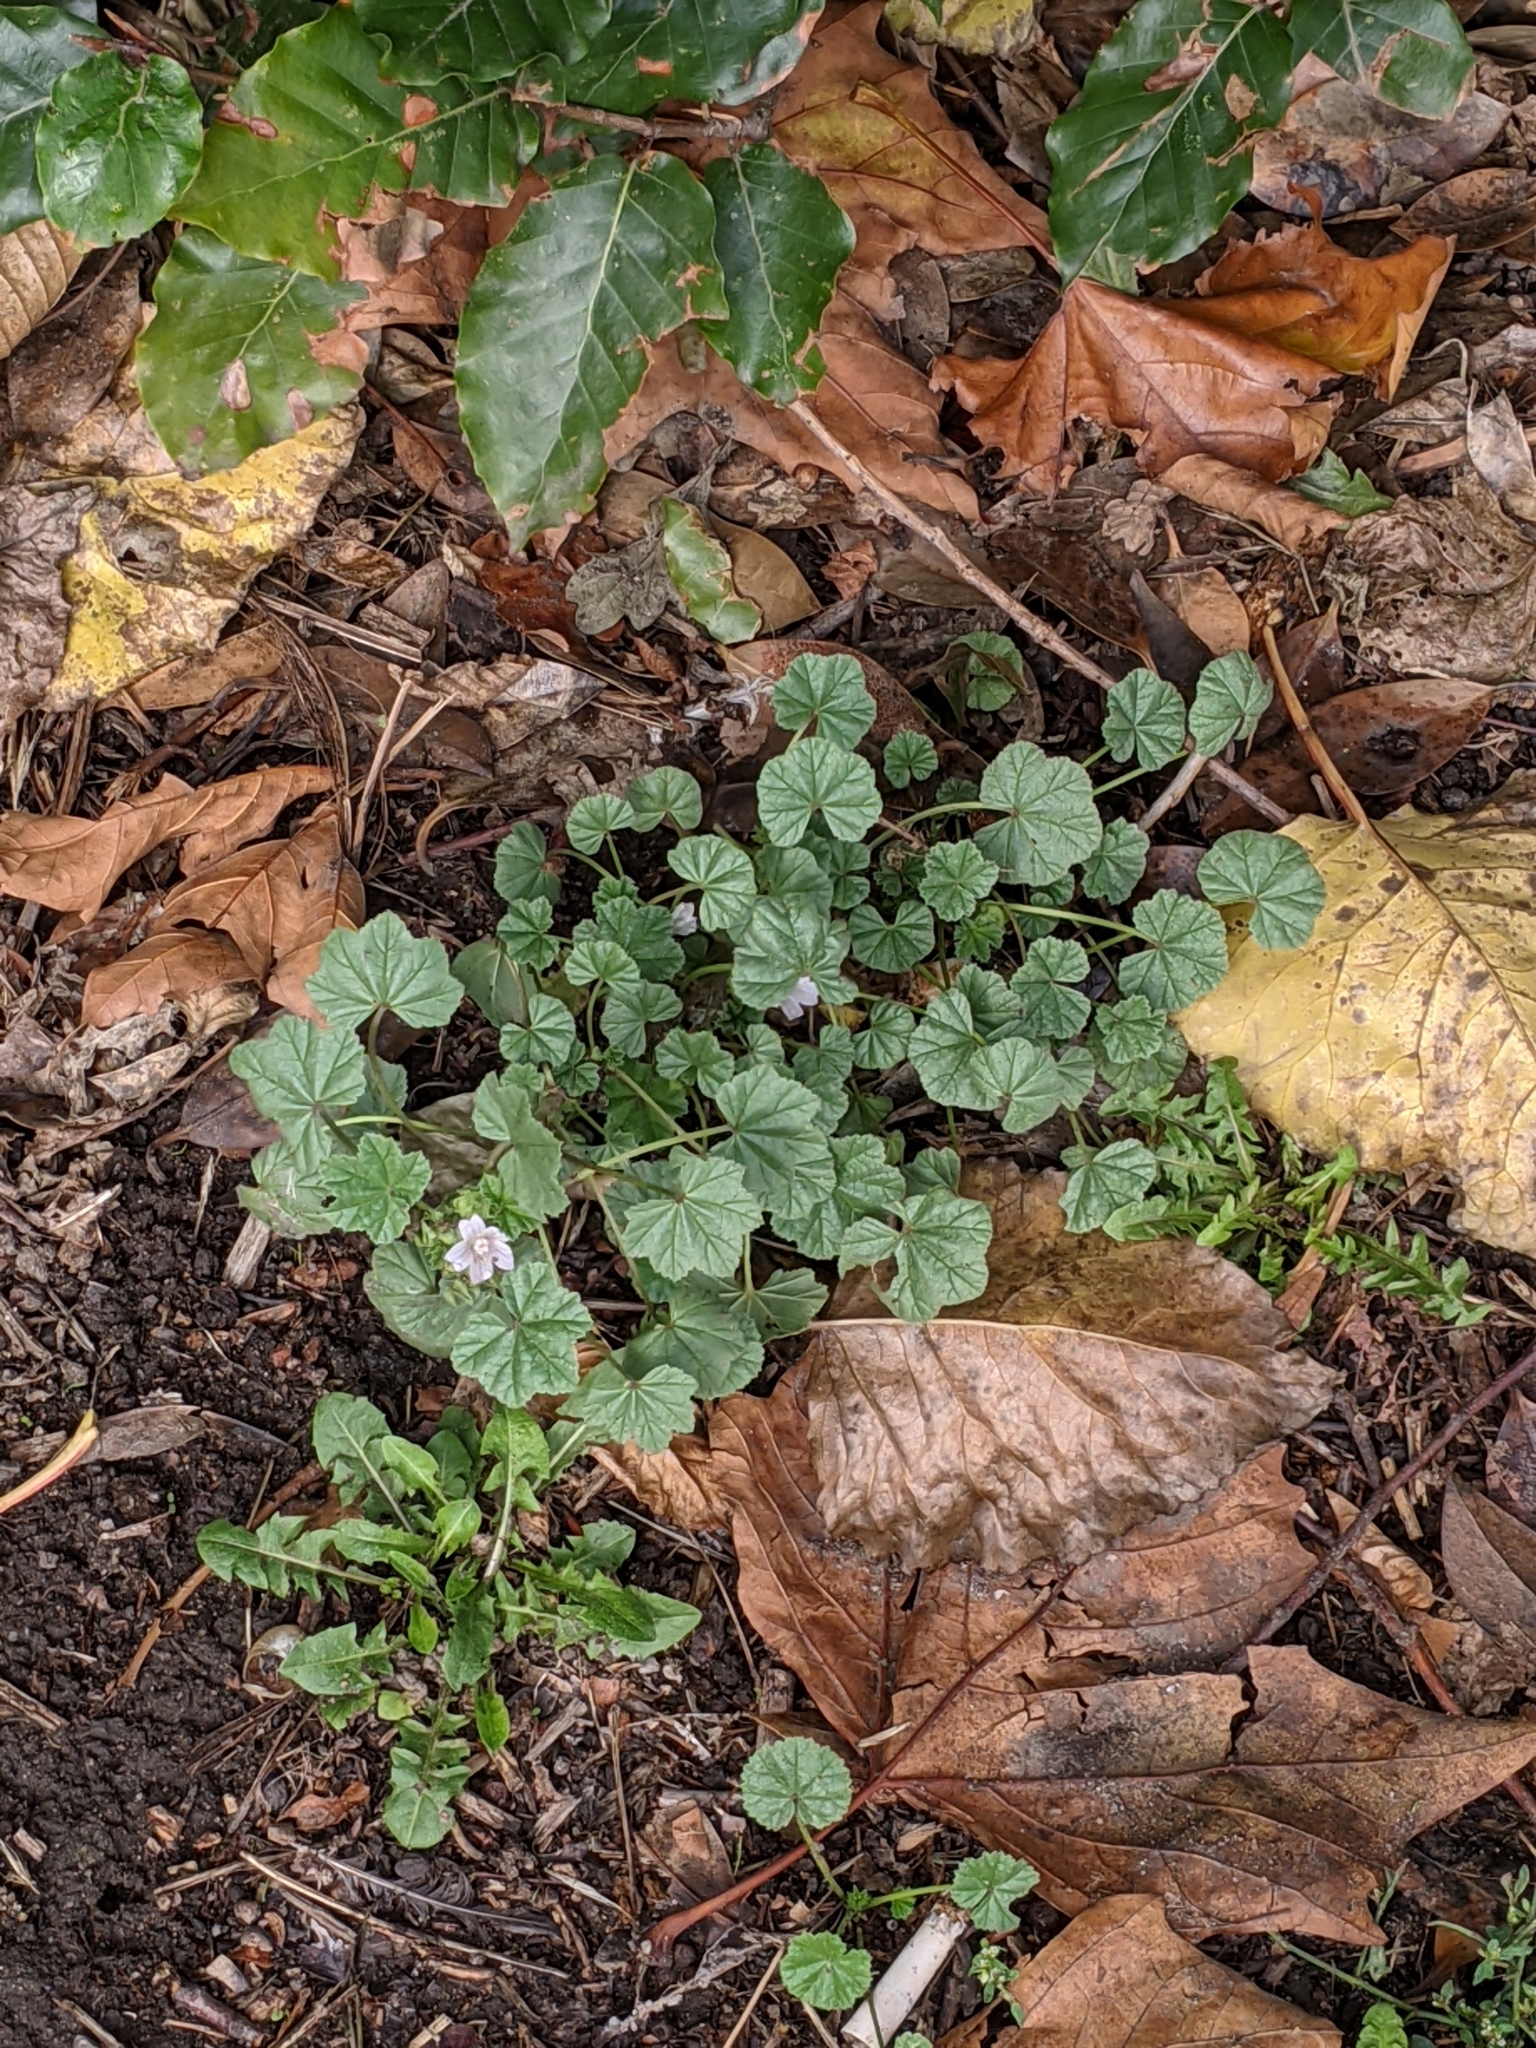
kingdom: Plantae
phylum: Tracheophyta
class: Magnoliopsida
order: Malvales
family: Malvaceae
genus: Malva
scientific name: Malva neglecta
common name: Common mallow
